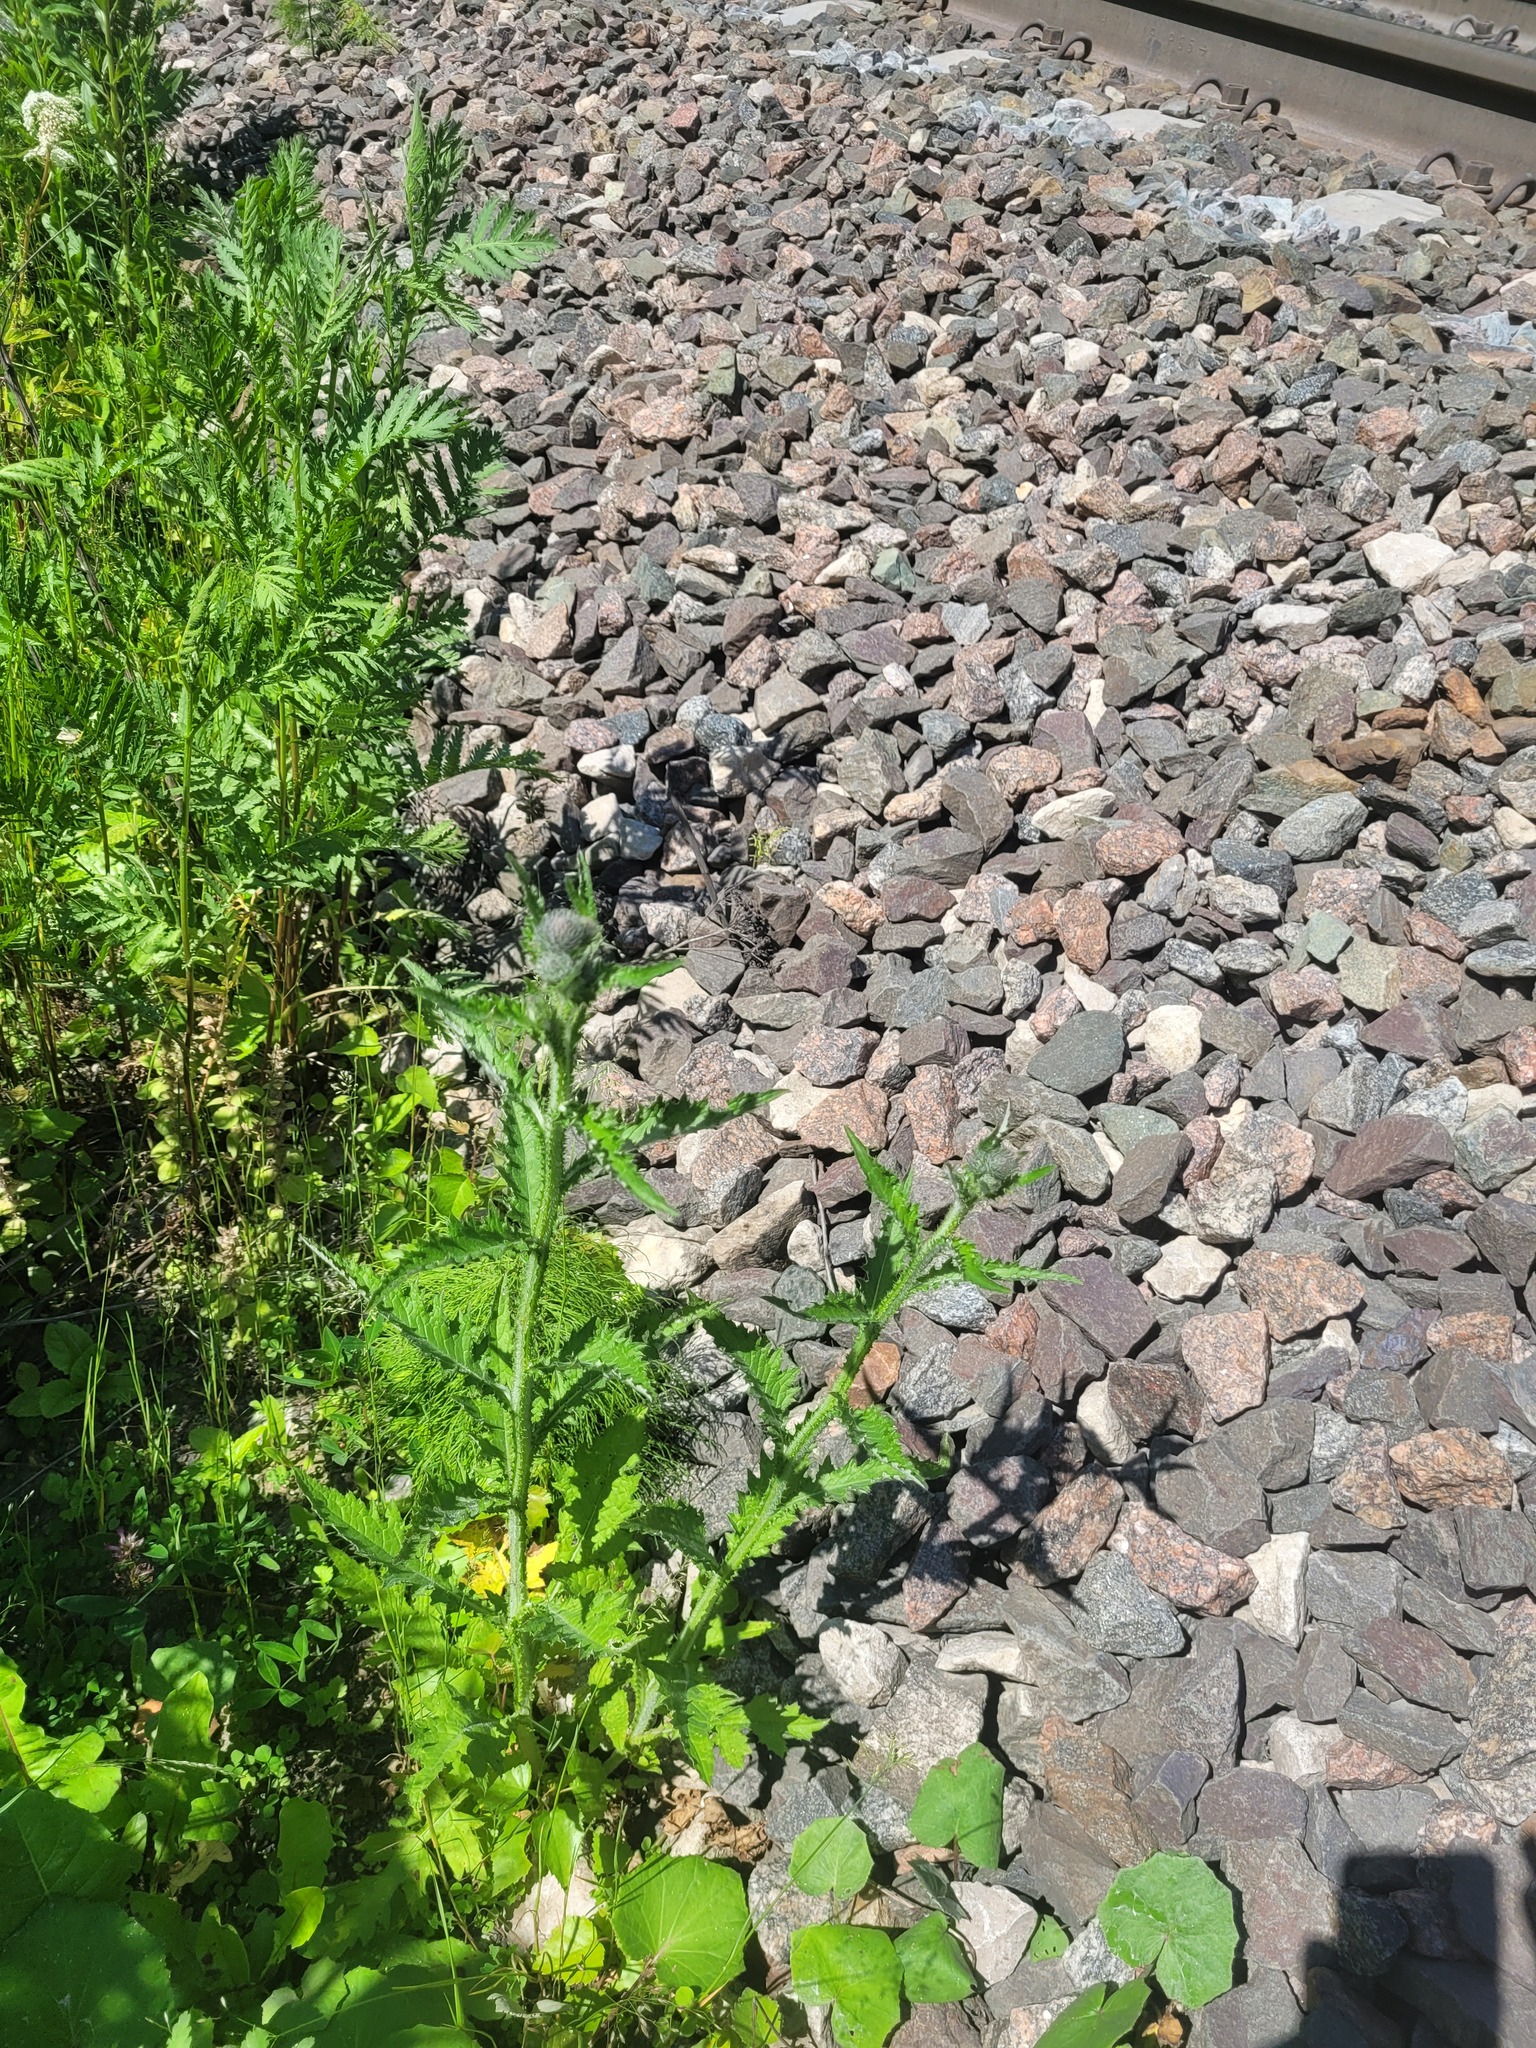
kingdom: Plantae
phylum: Tracheophyta
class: Magnoliopsida
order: Asterales
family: Asteraceae
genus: Carduus
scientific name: Carduus crispus
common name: Welted thistle
